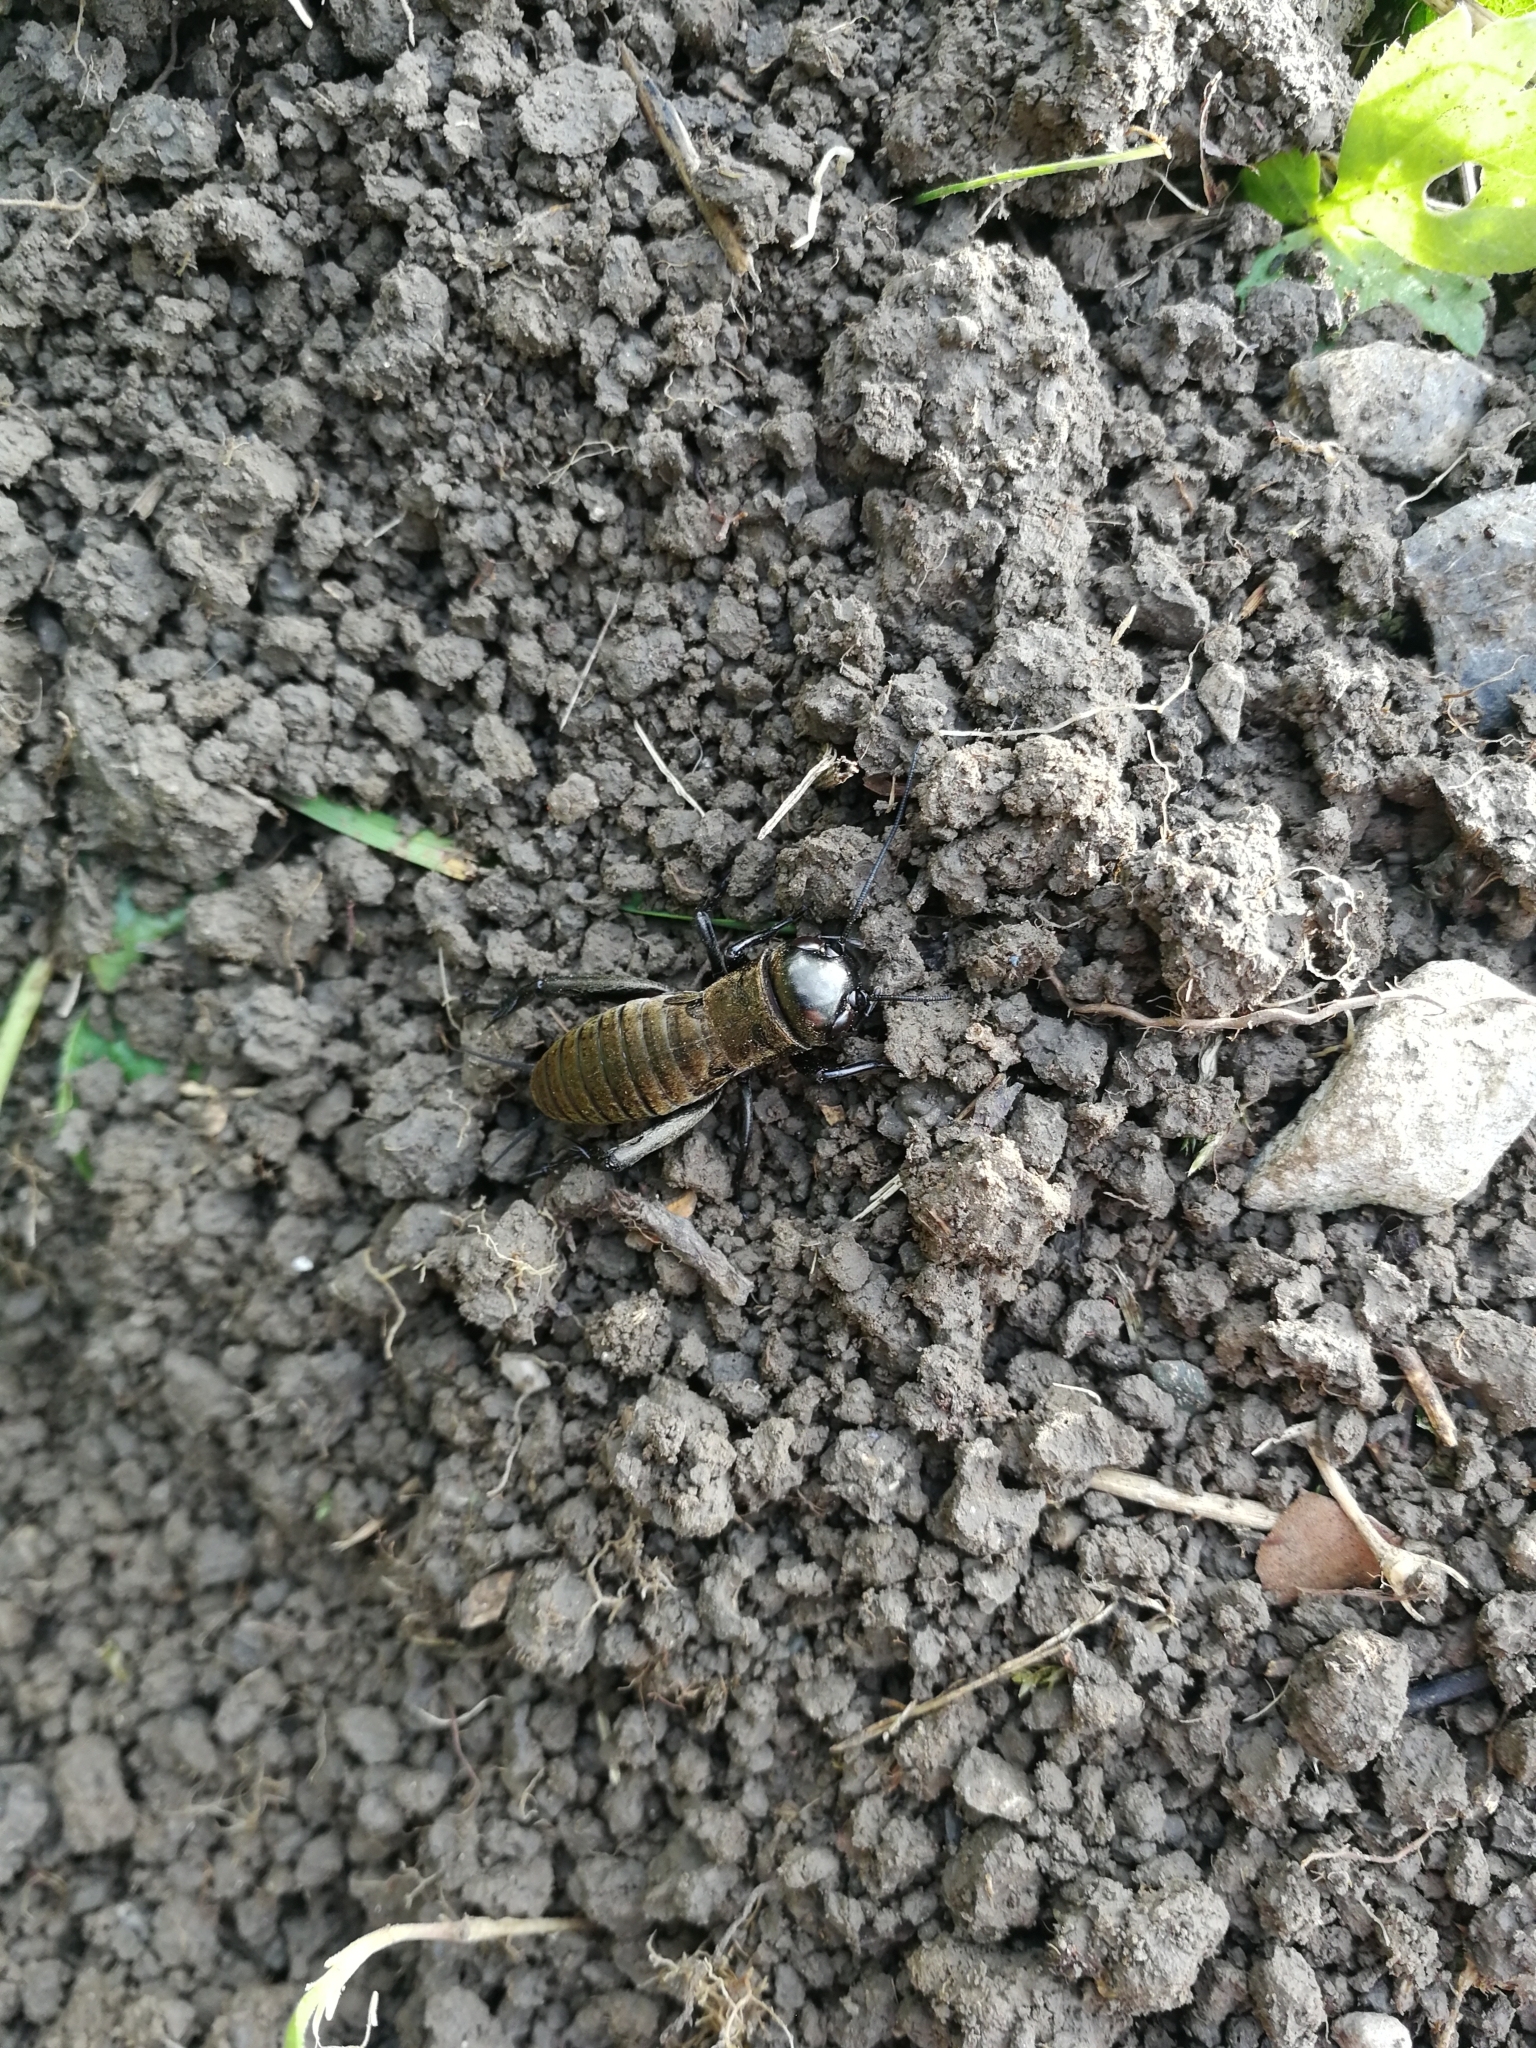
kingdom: Animalia
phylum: Arthropoda
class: Insecta
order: Orthoptera
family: Gryllidae
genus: Gryllus
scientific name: Gryllus campestris
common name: Field cricket
